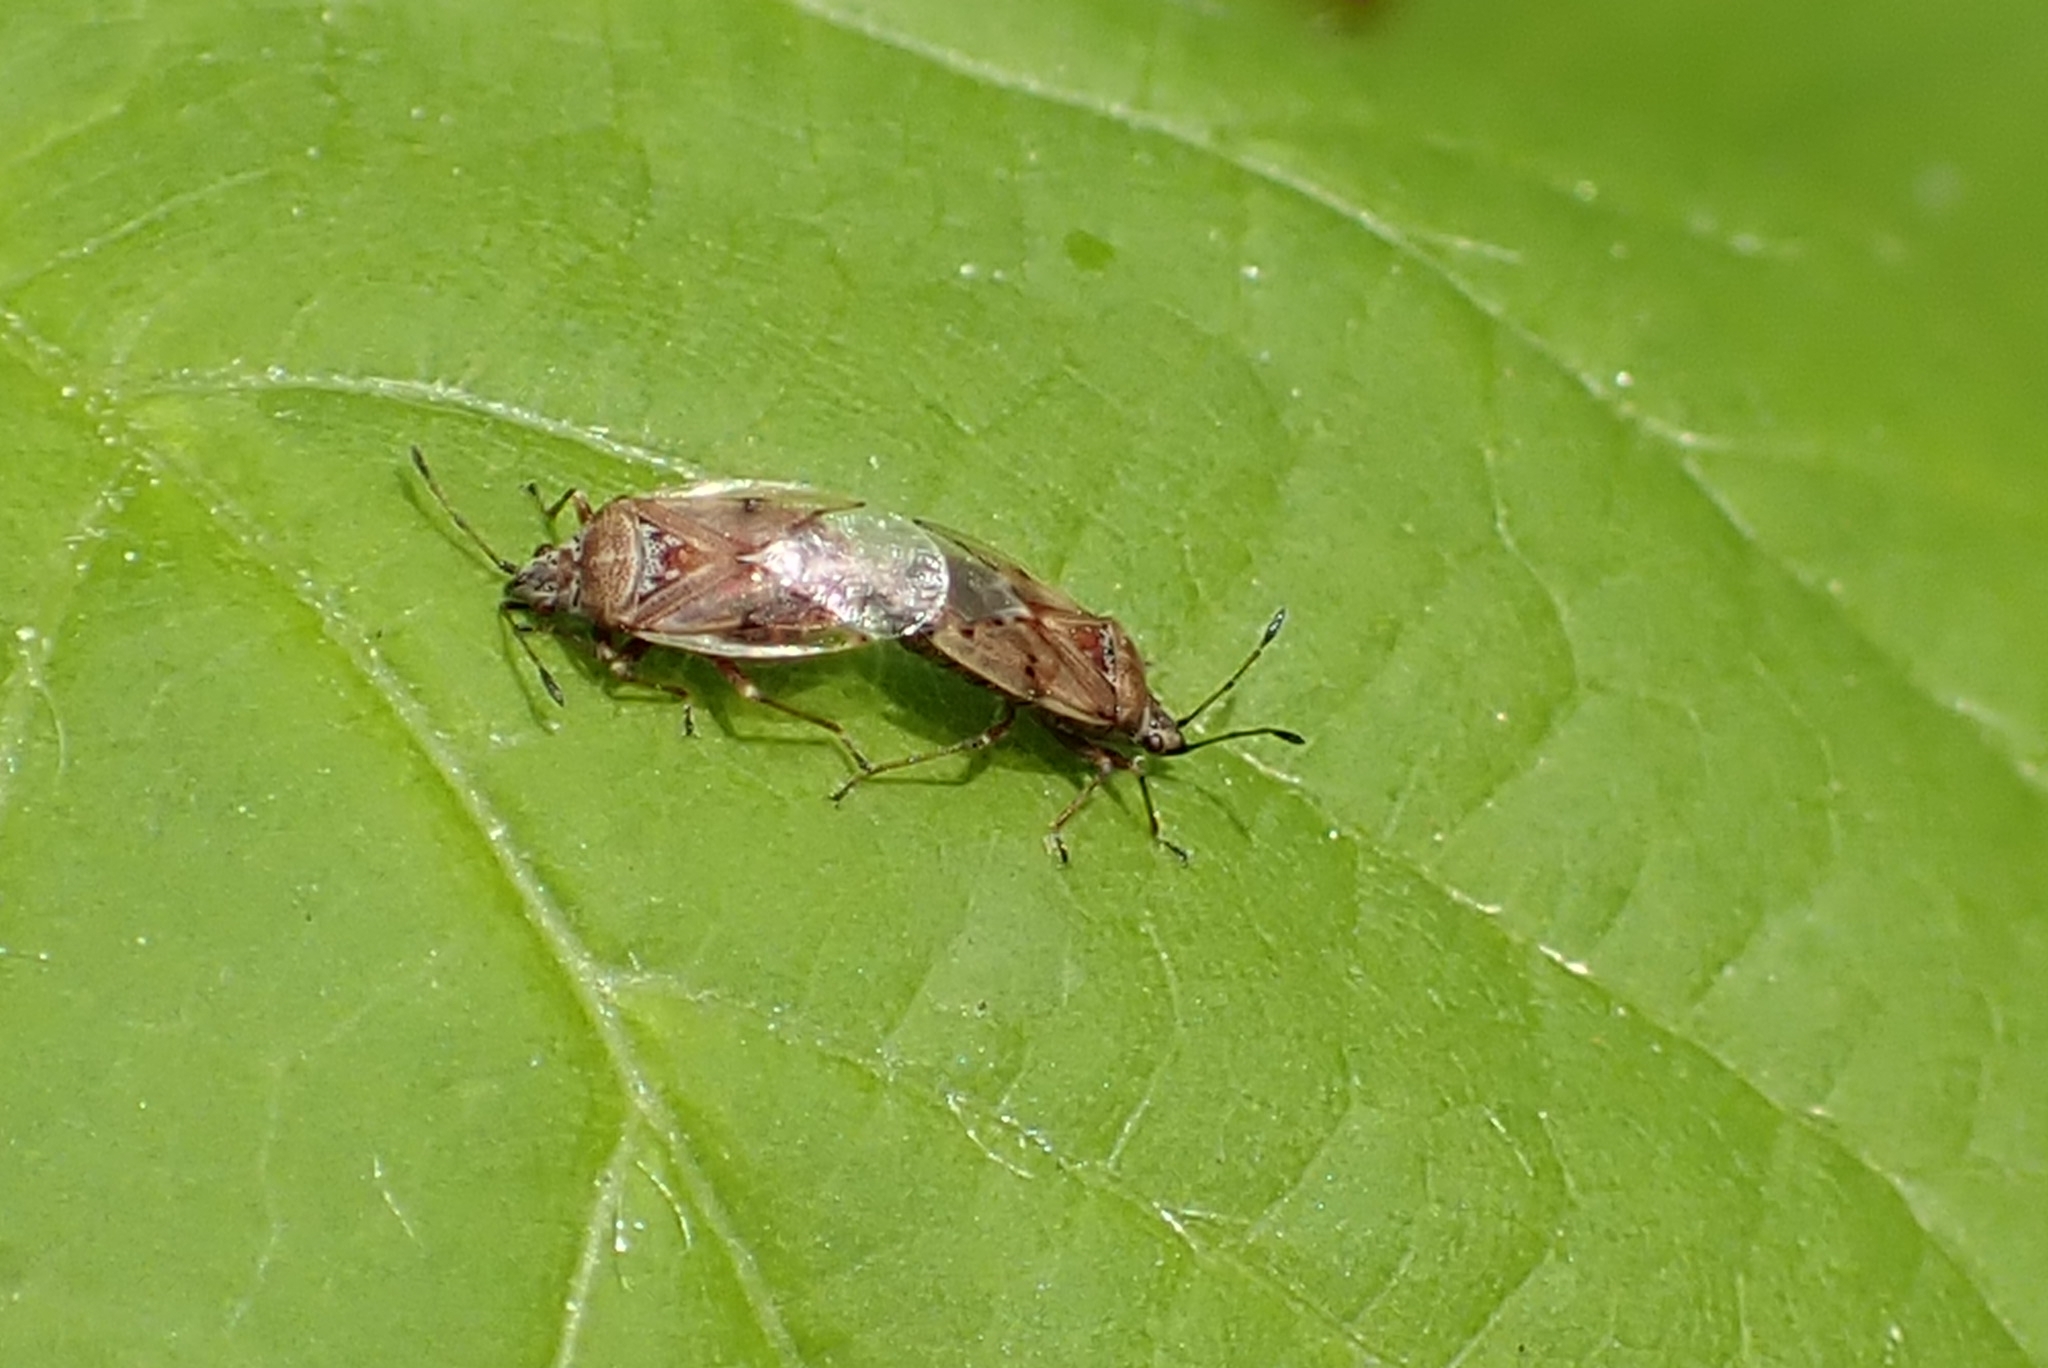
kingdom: Animalia
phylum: Arthropoda
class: Insecta
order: Hemiptera
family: Lygaeidae
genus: Kleidocerys
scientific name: Kleidocerys resedae
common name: Birch catkin bug
